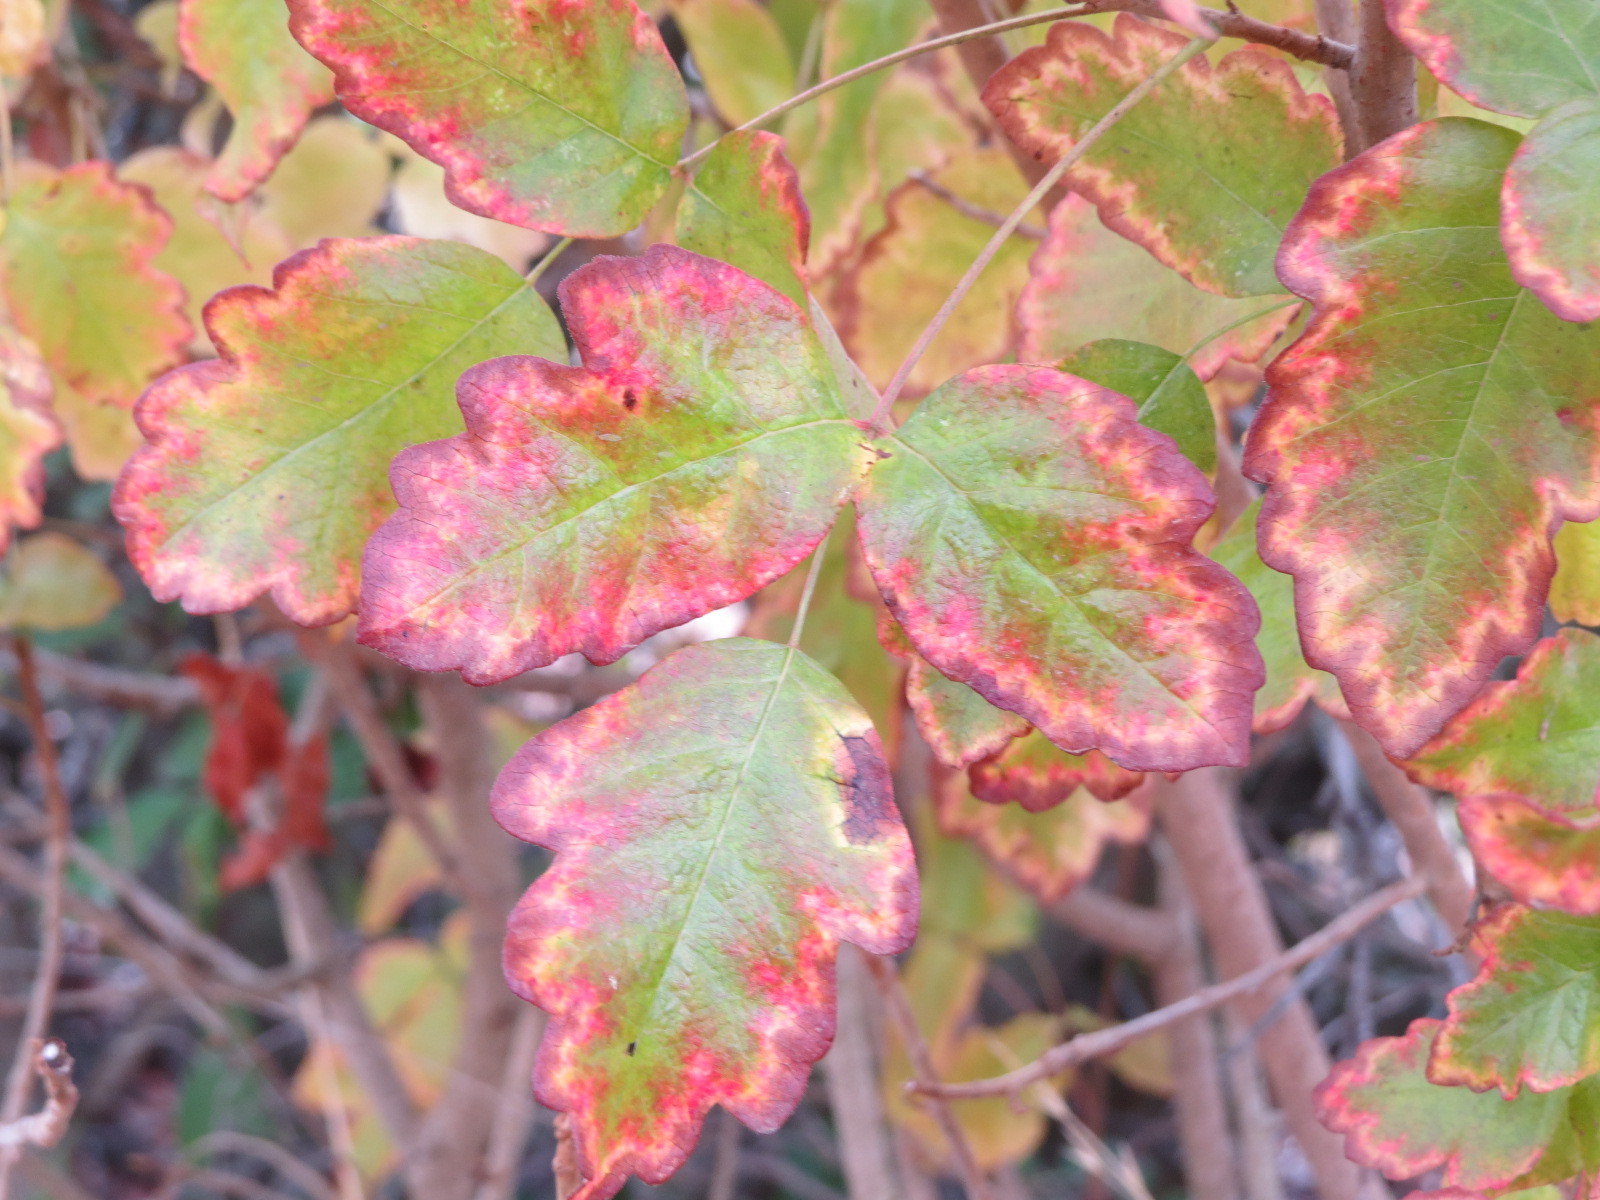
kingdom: Plantae
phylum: Tracheophyta
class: Magnoliopsida
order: Sapindales
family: Anacardiaceae
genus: Toxicodendron
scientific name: Toxicodendron diversilobum
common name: Pacific poison-oak
